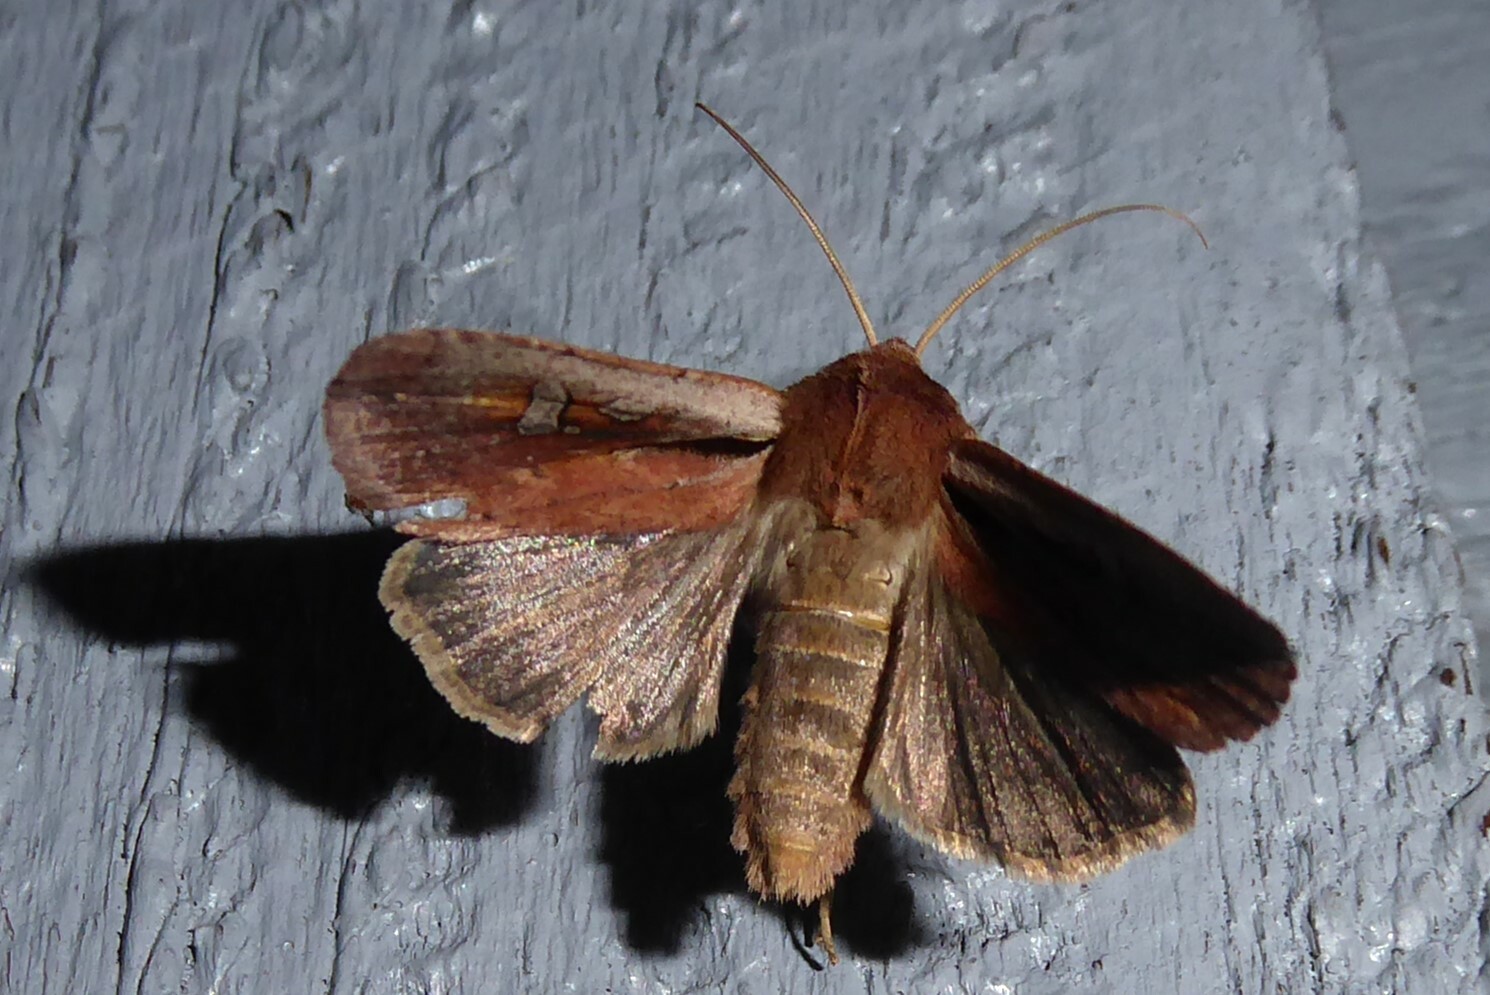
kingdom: Animalia
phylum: Arthropoda
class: Insecta
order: Lepidoptera
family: Noctuidae
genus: Ichneutica
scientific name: Ichneutica atristriga
